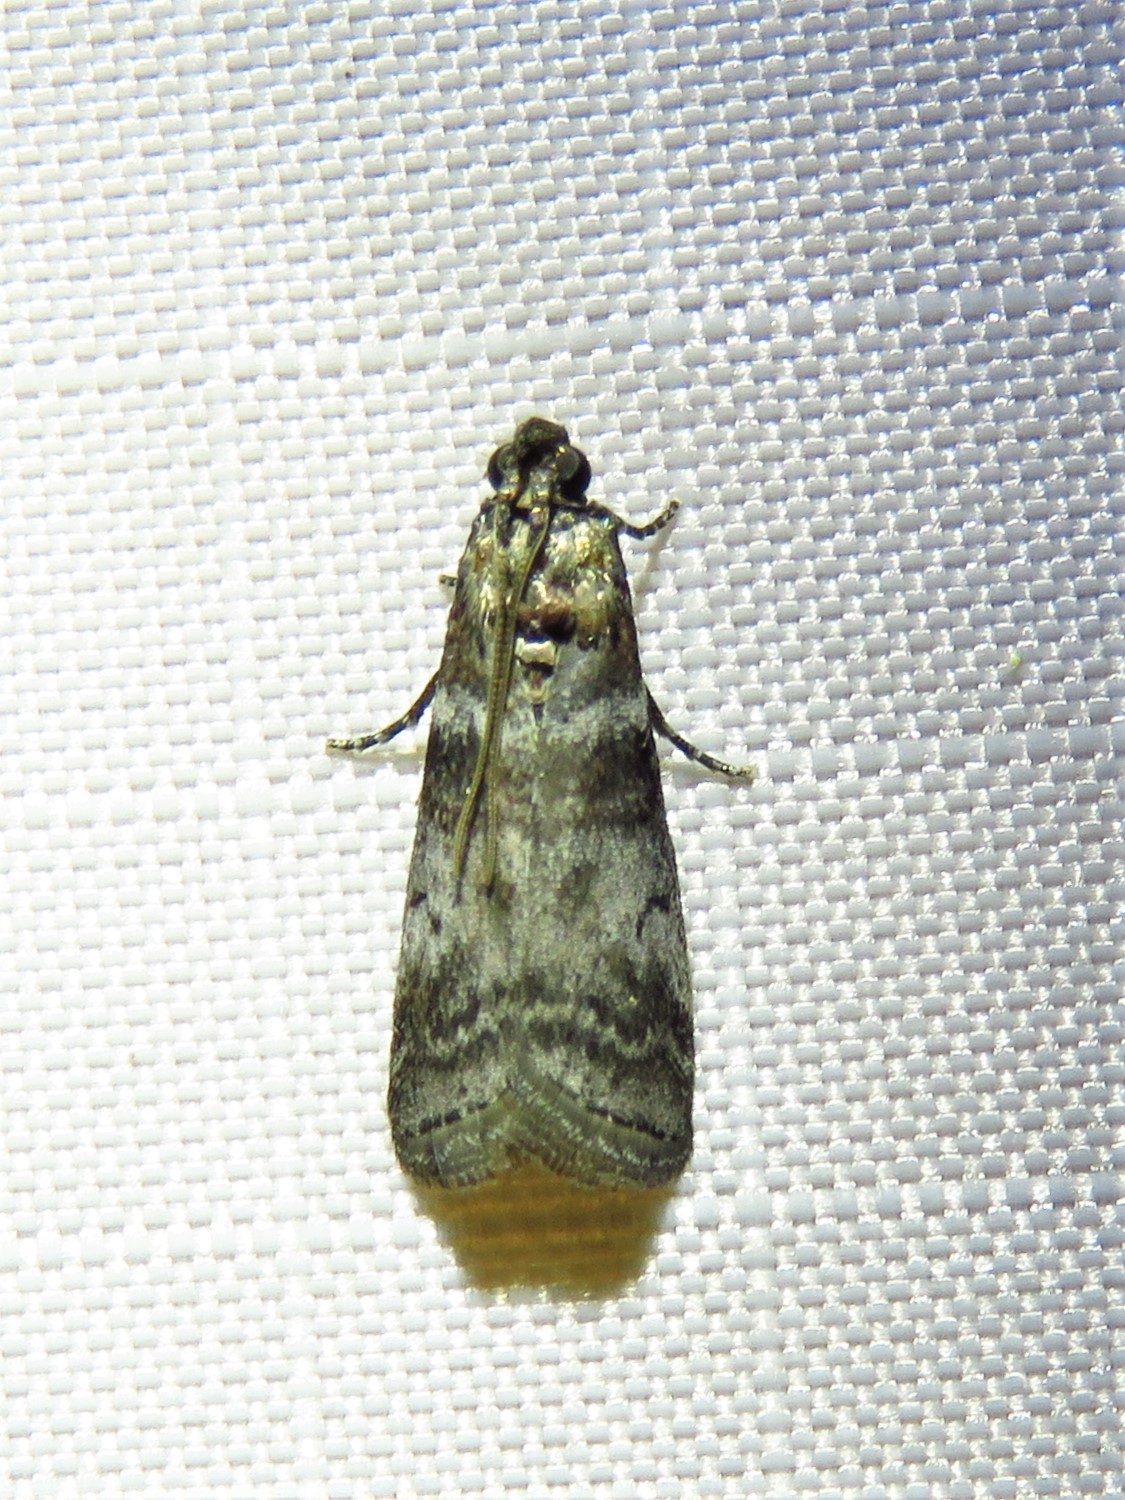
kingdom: Animalia
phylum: Arthropoda
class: Insecta
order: Lepidoptera
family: Pyralidae
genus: Sciota
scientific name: Sciota uvinella
